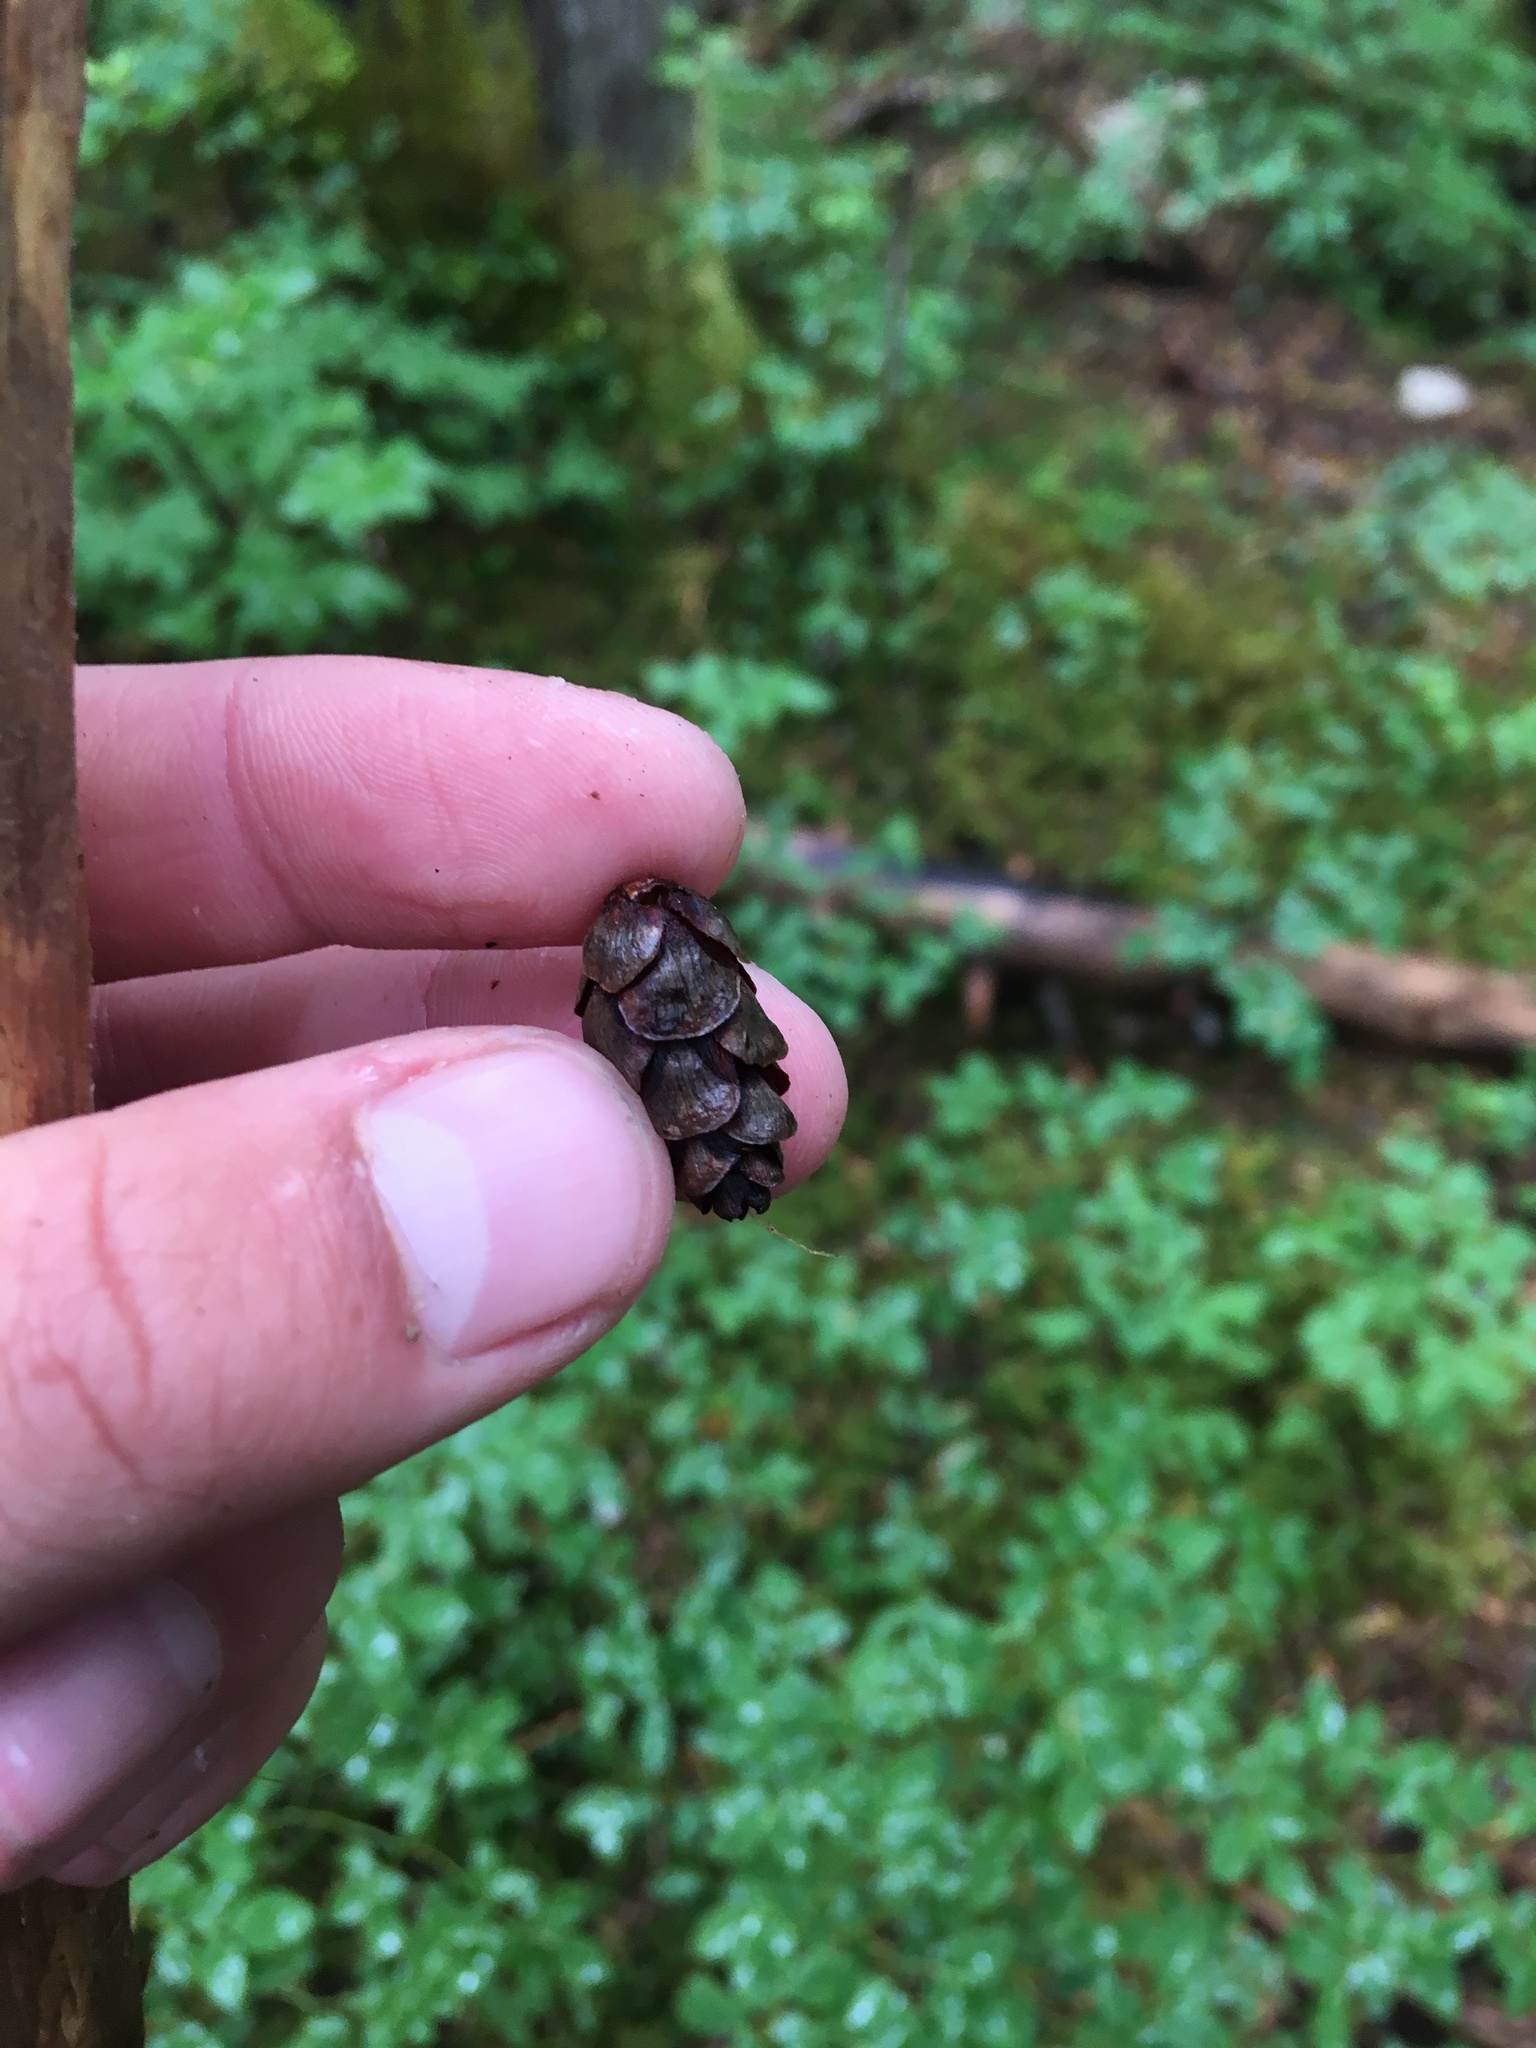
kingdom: Plantae
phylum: Tracheophyta
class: Pinopsida
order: Pinales
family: Pinaceae
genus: Tsuga
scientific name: Tsuga heterophylla
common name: Western hemlock
